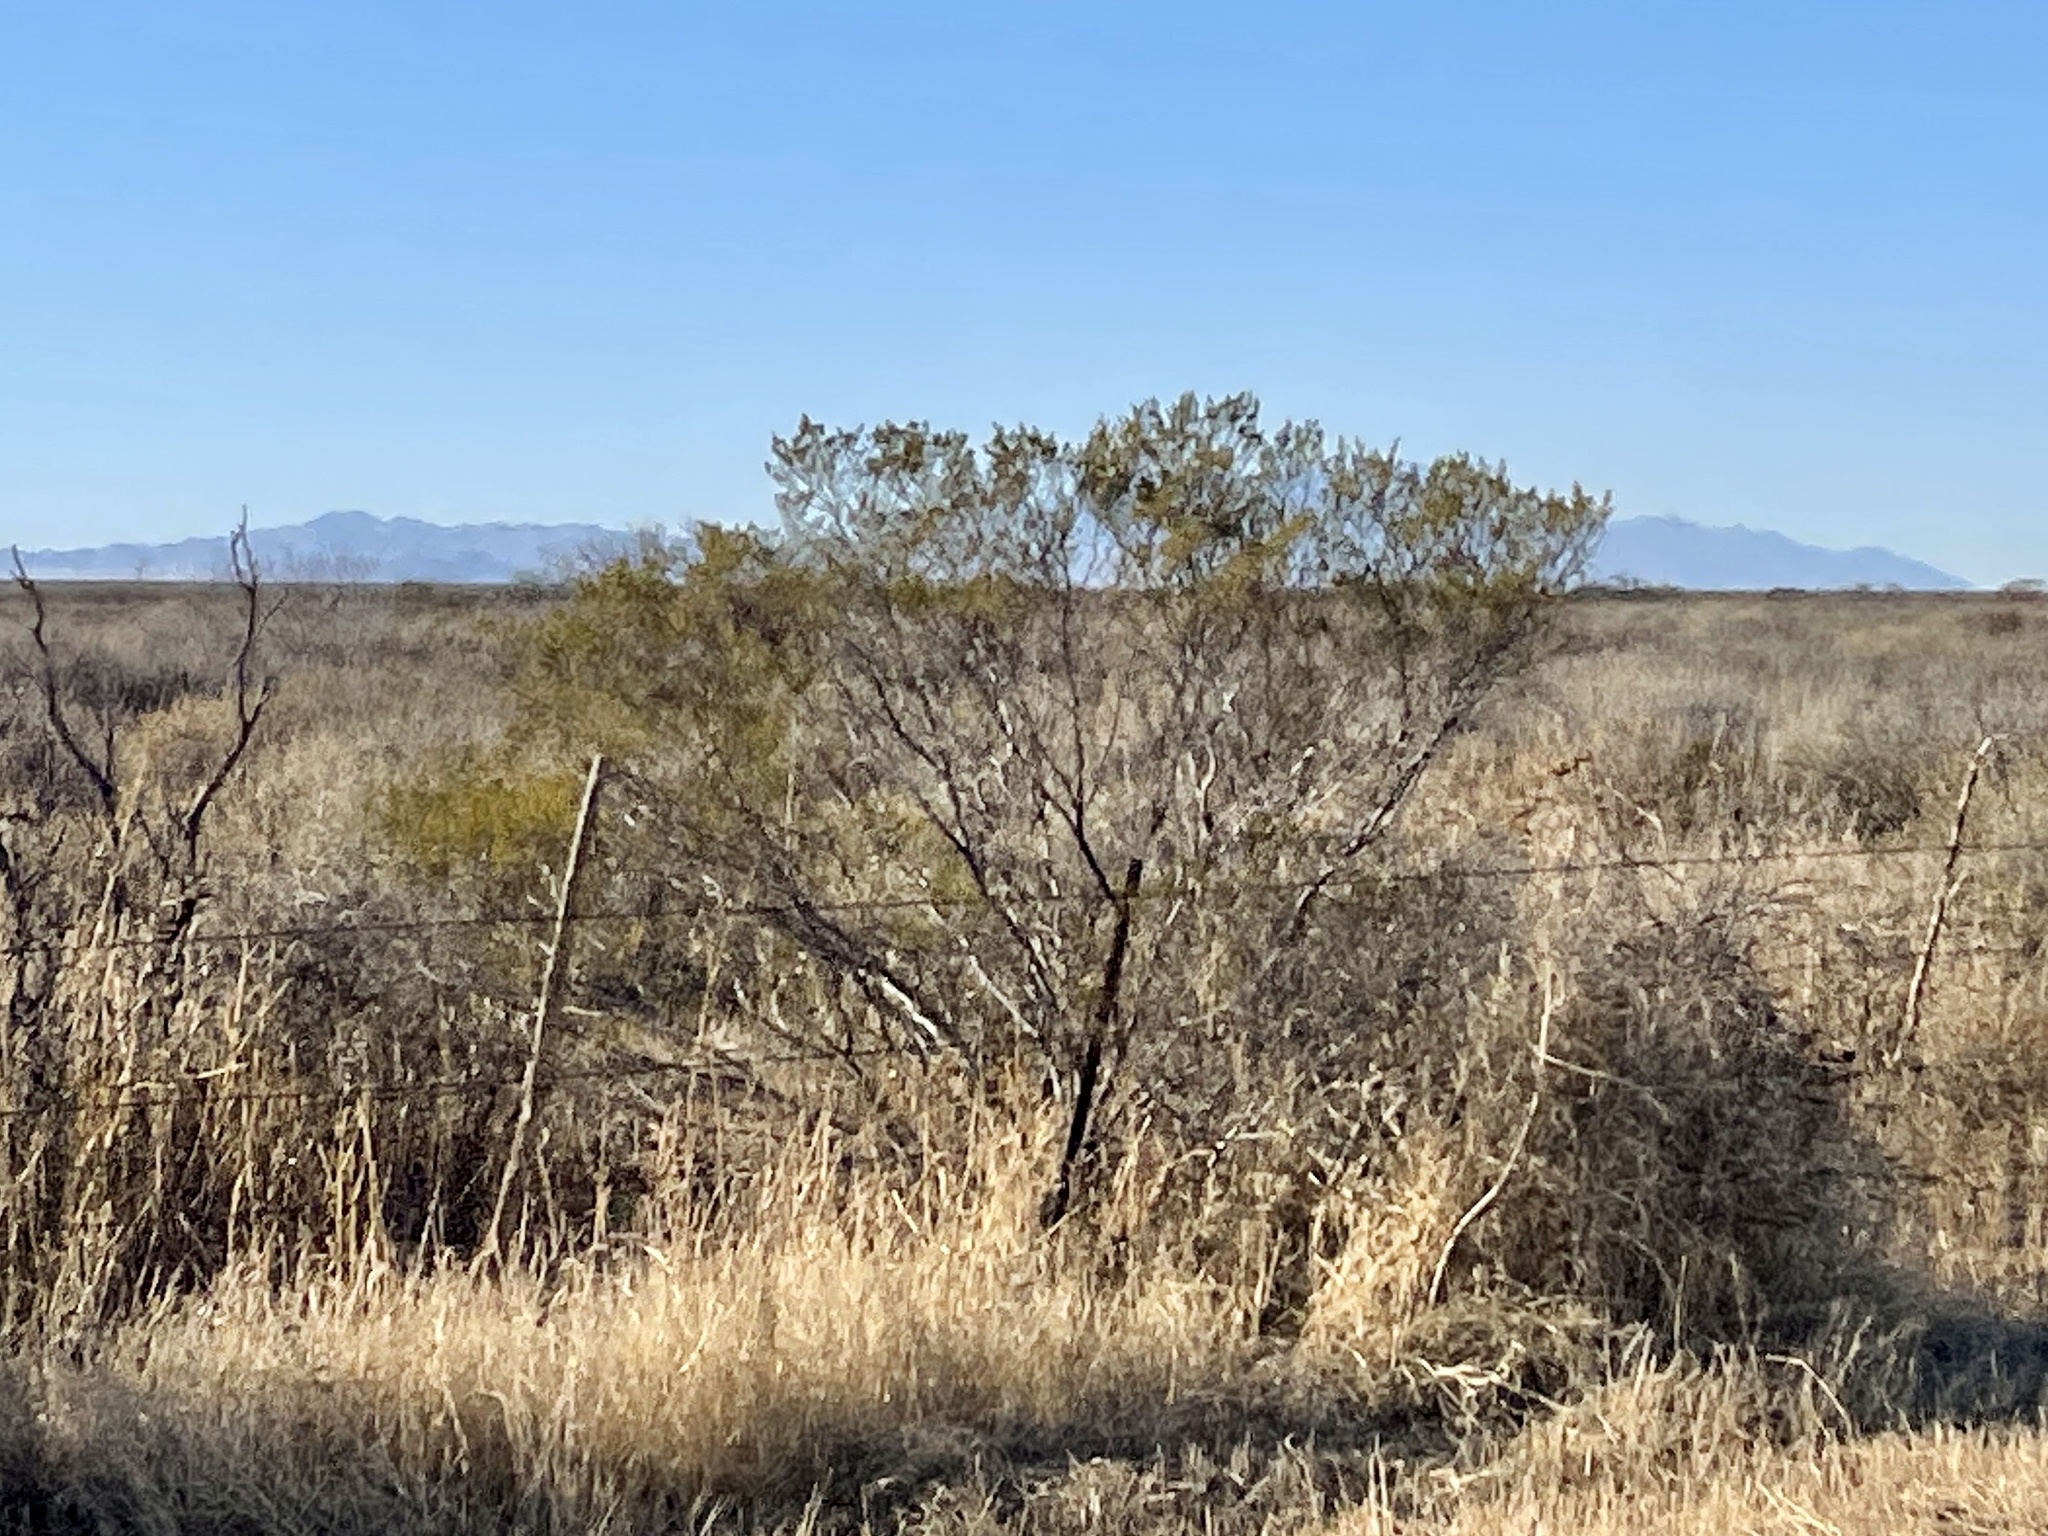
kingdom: Plantae
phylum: Tracheophyta
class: Magnoliopsida
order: Zygophyllales
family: Zygophyllaceae
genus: Larrea
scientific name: Larrea tridentata
